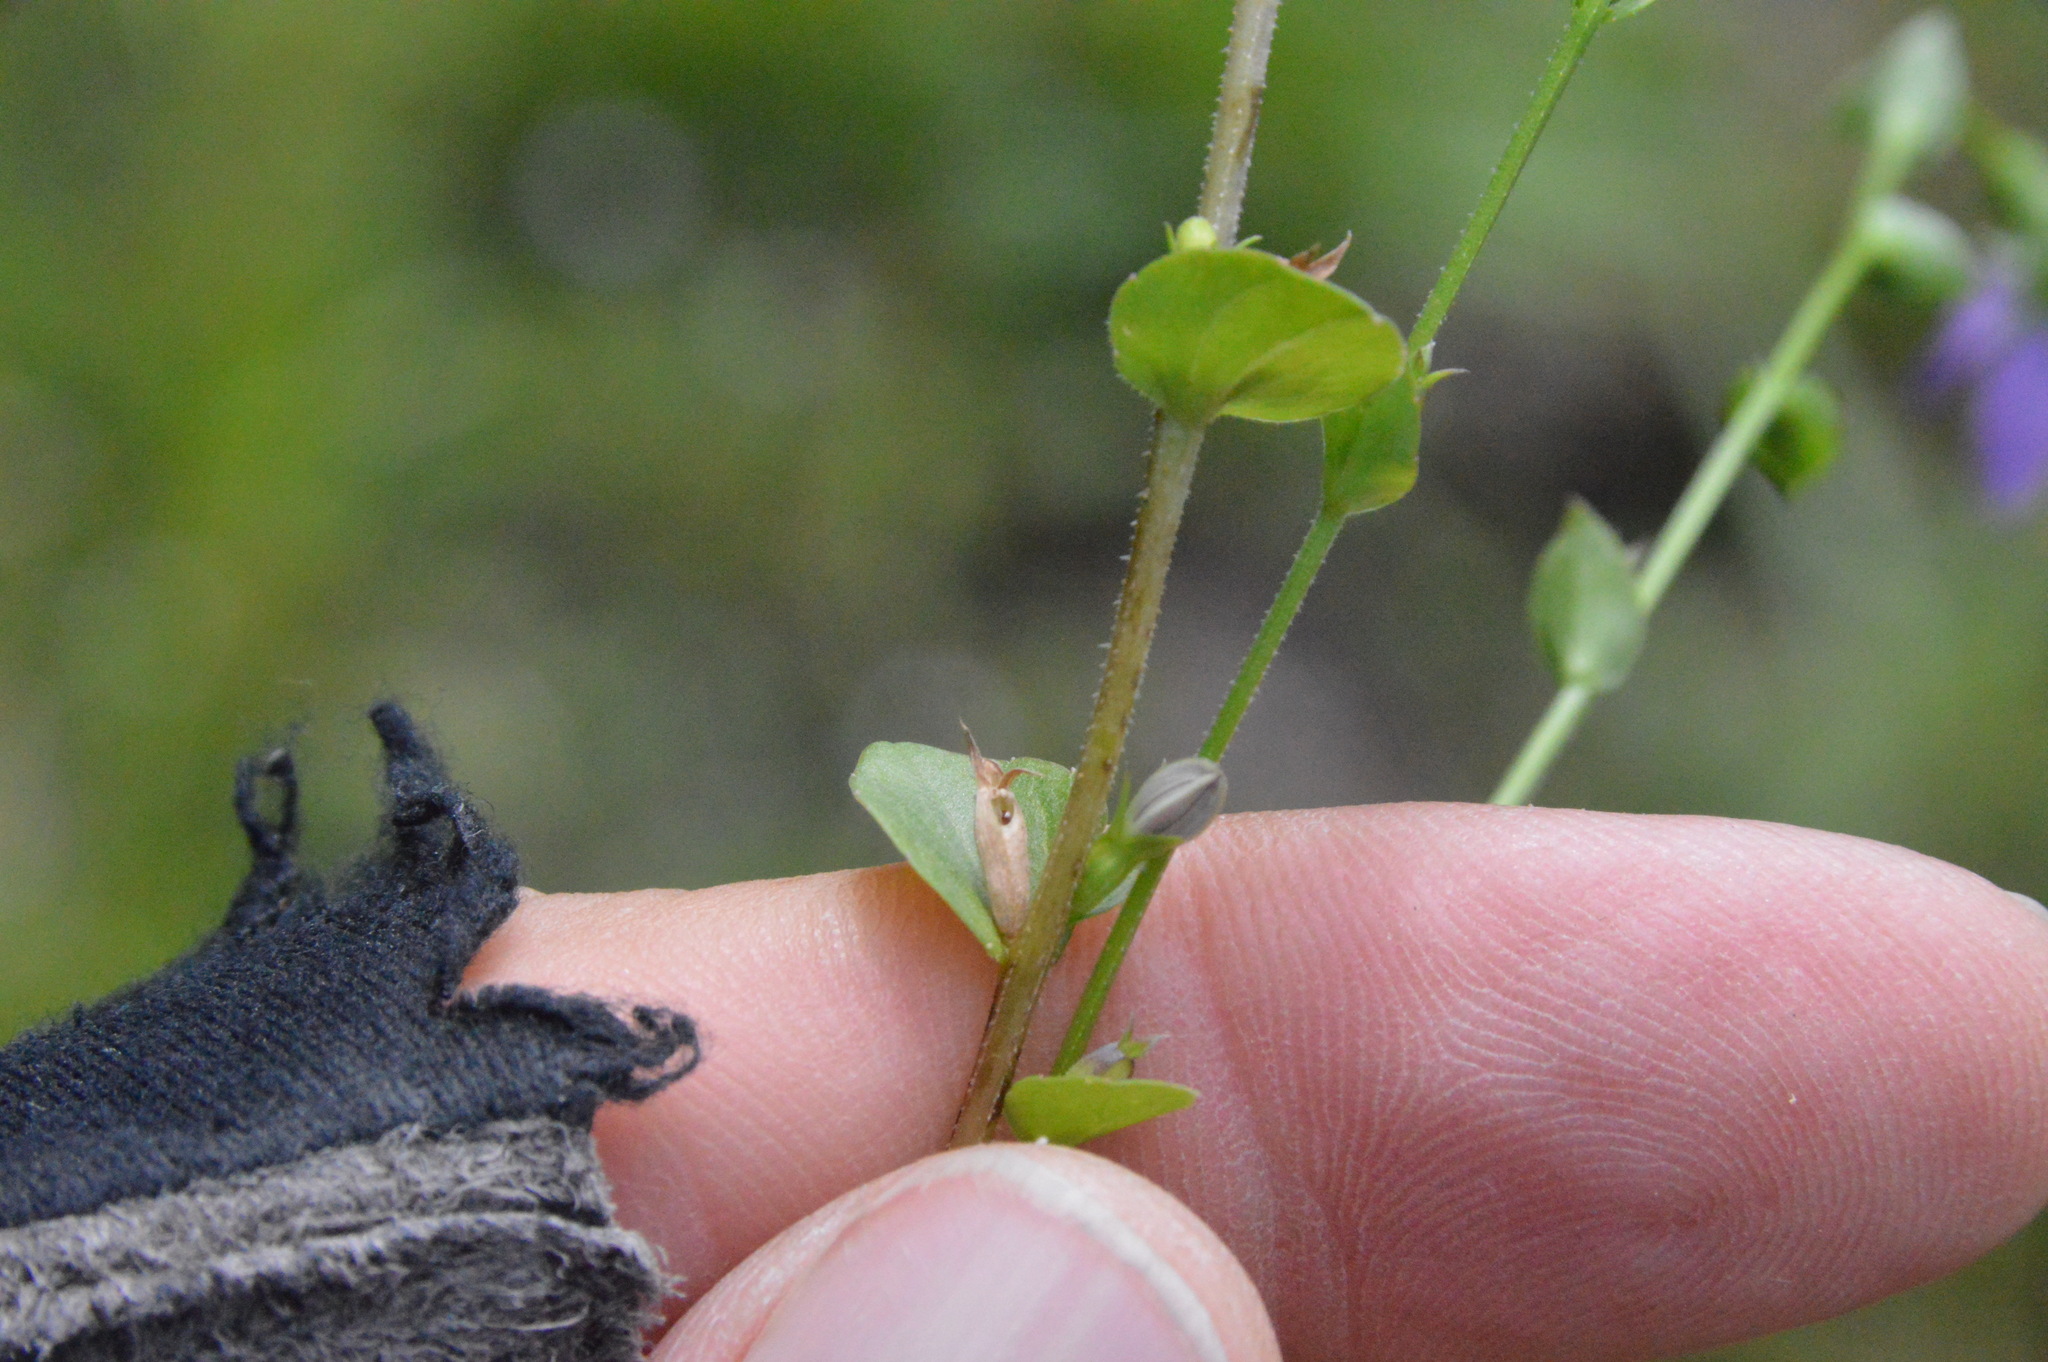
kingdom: Plantae
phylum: Tracheophyta
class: Magnoliopsida
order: Asterales
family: Campanulaceae
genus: Triodanis
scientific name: Triodanis biflora
